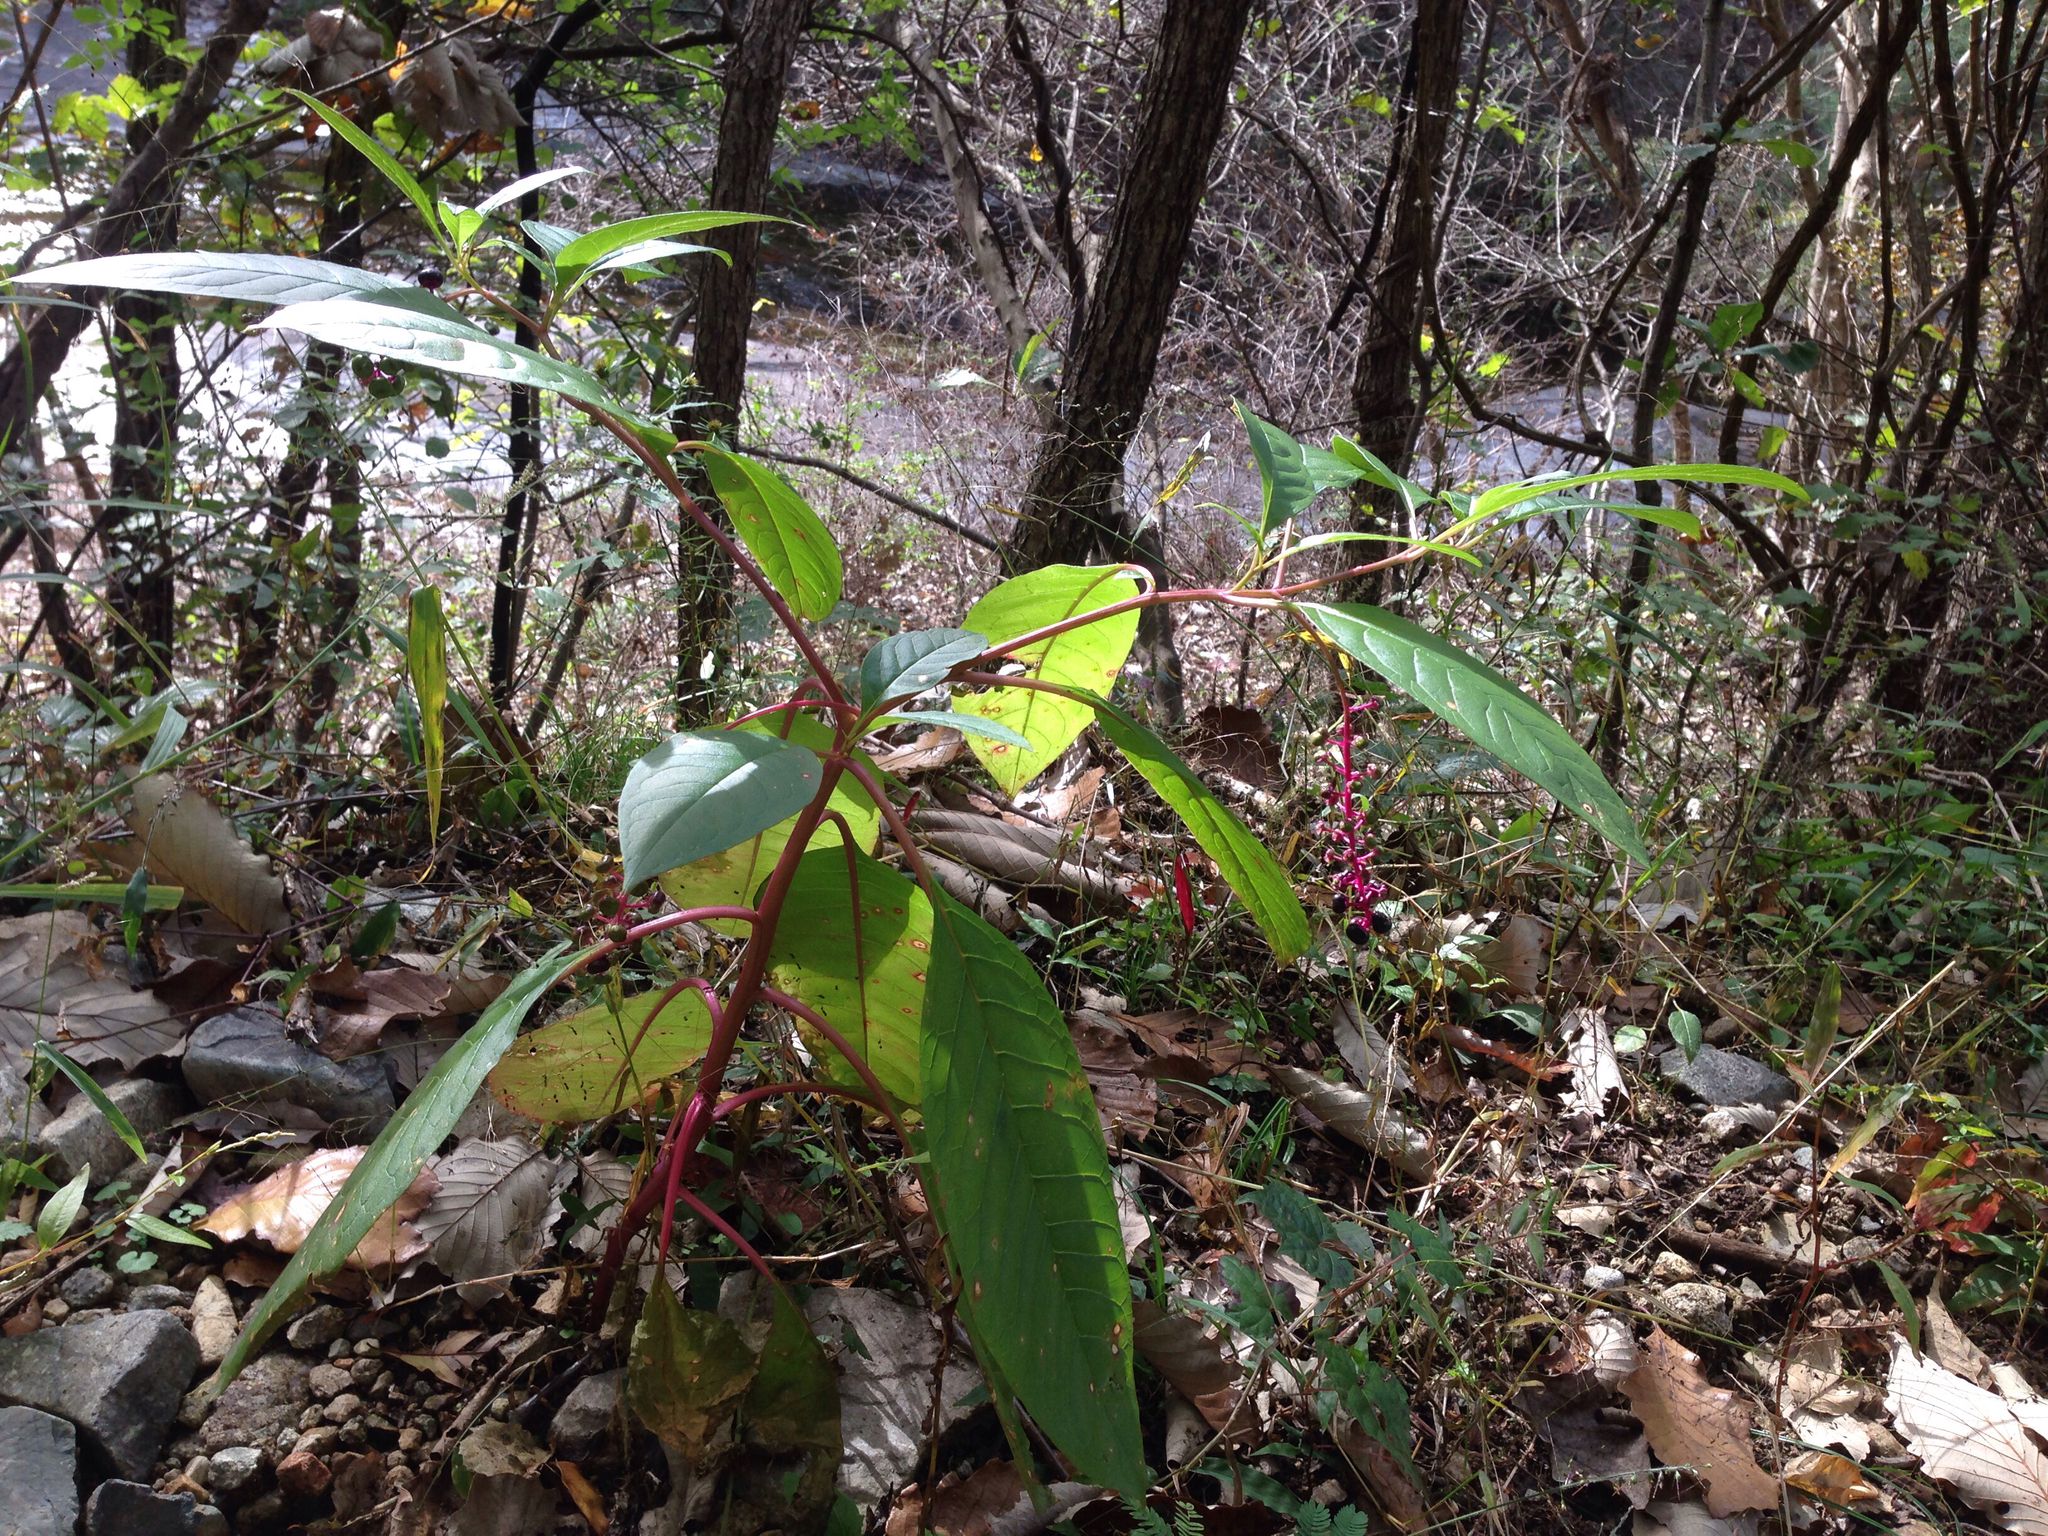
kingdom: Plantae
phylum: Tracheophyta
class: Magnoliopsida
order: Caryophyllales
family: Phytolaccaceae
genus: Phytolacca
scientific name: Phytolacca americana
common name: American pokeweed
